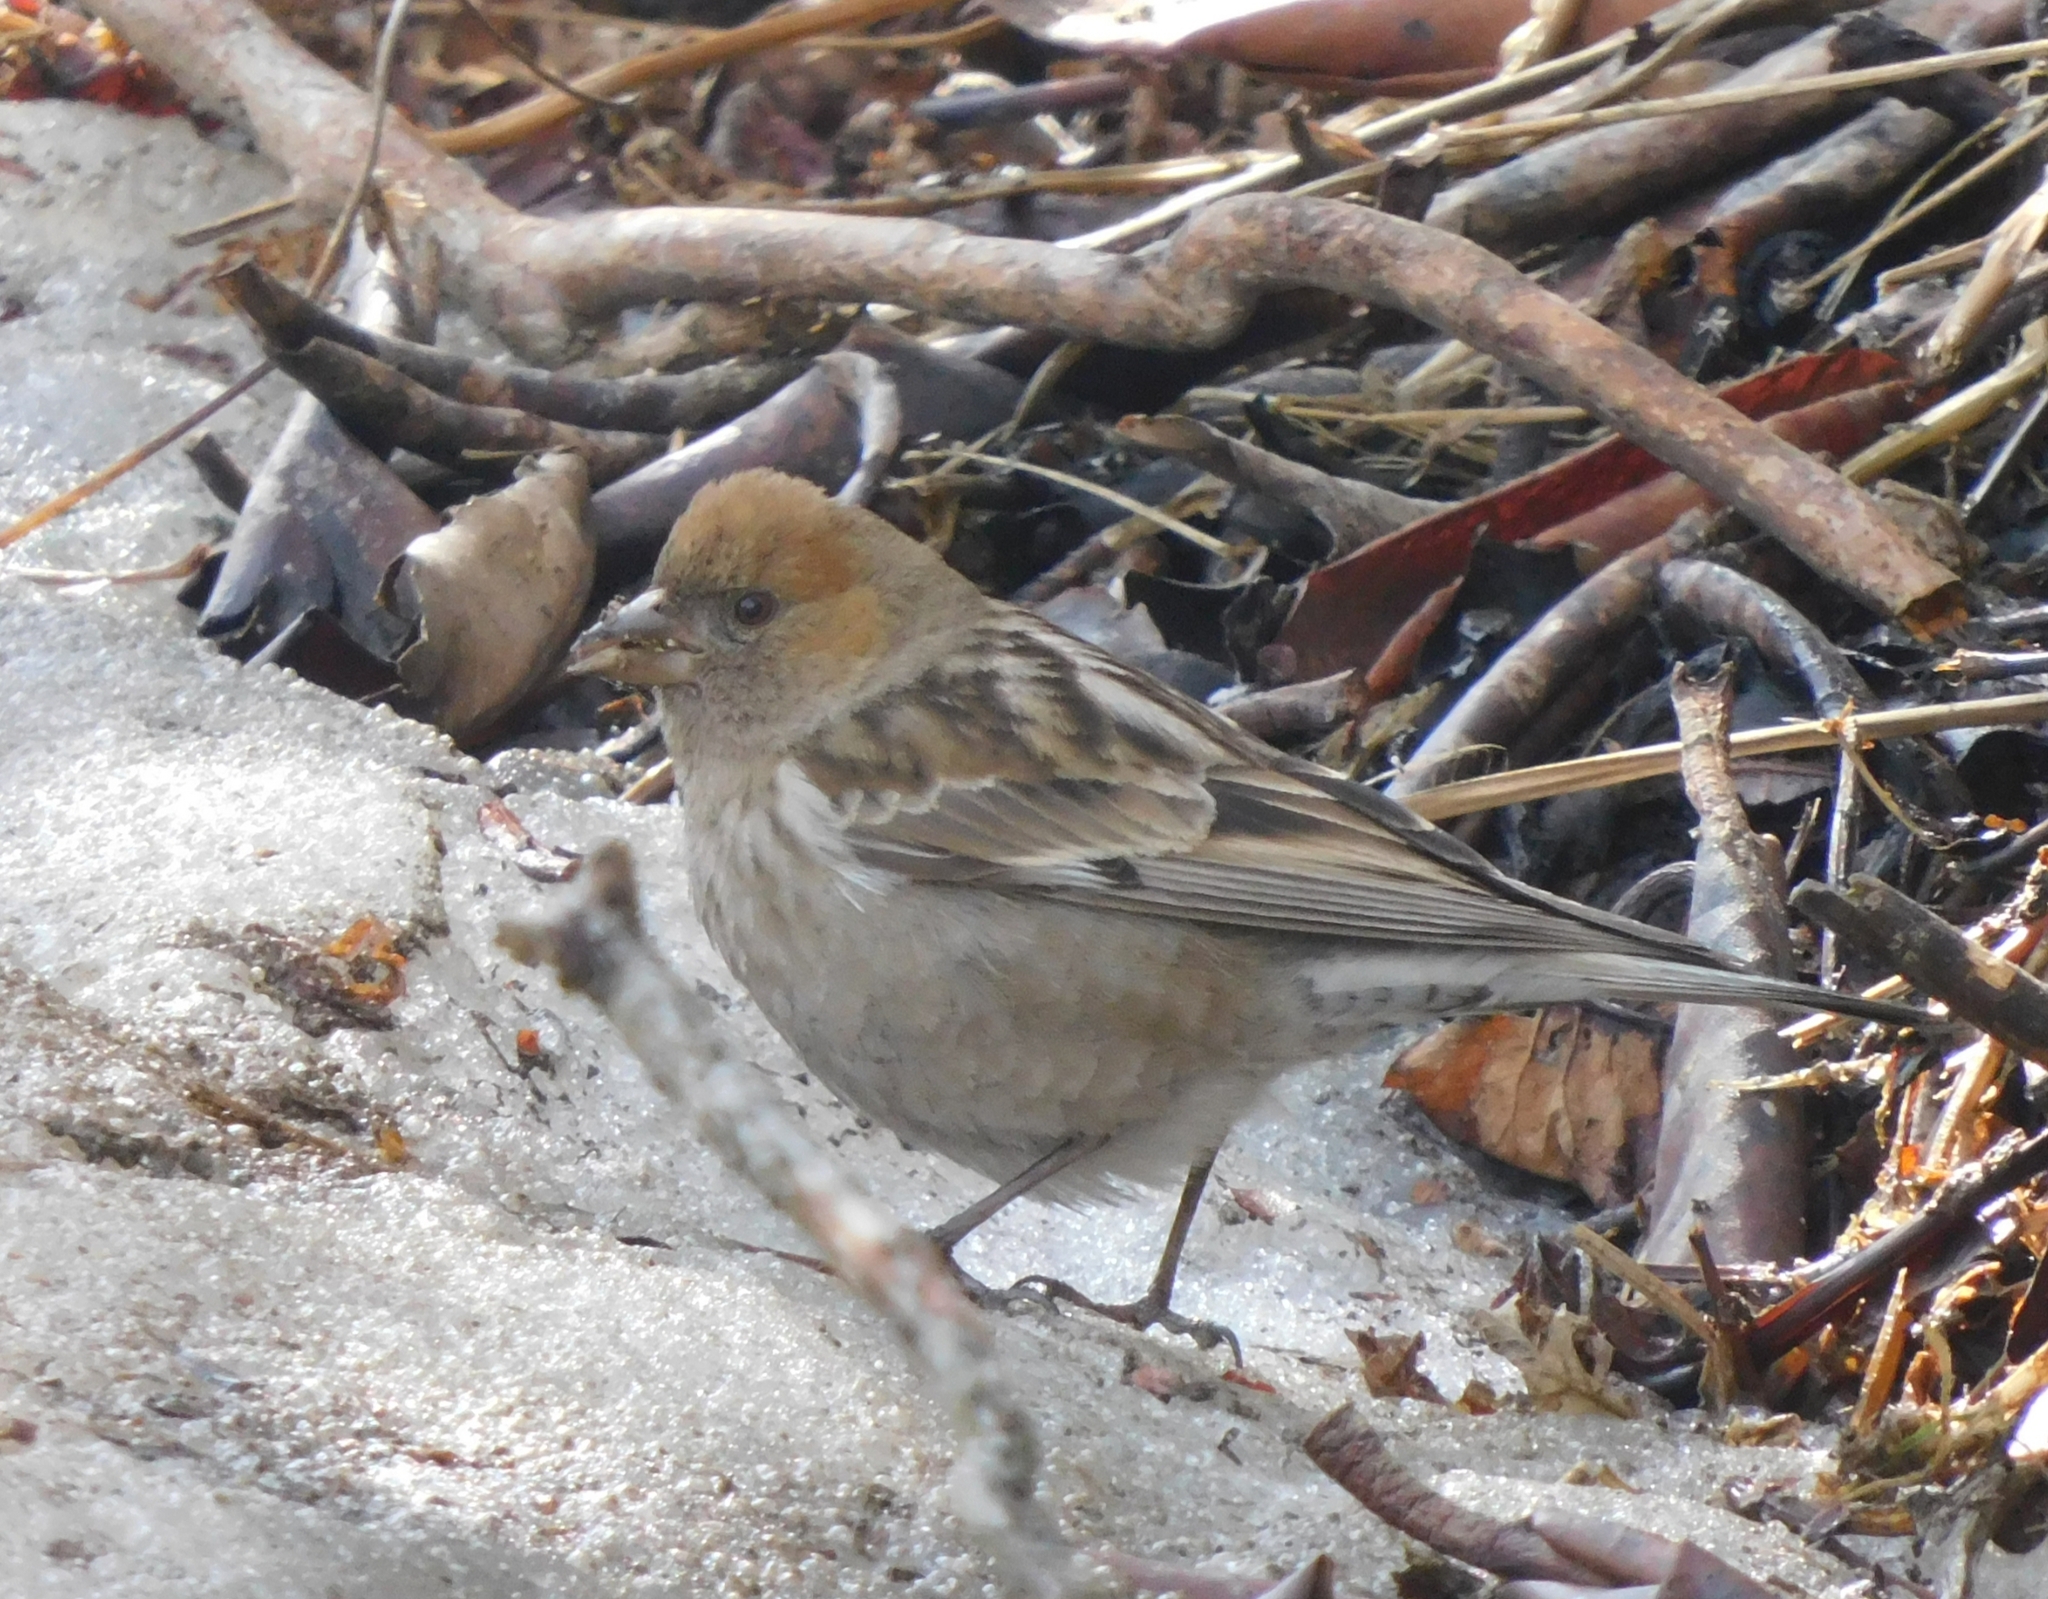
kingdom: Animalia
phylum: Chordata
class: Aves
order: Passeriformes
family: Fringillidae
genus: Leucosticte
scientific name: Leucosticte nemoricola
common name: Plain mountain finch
